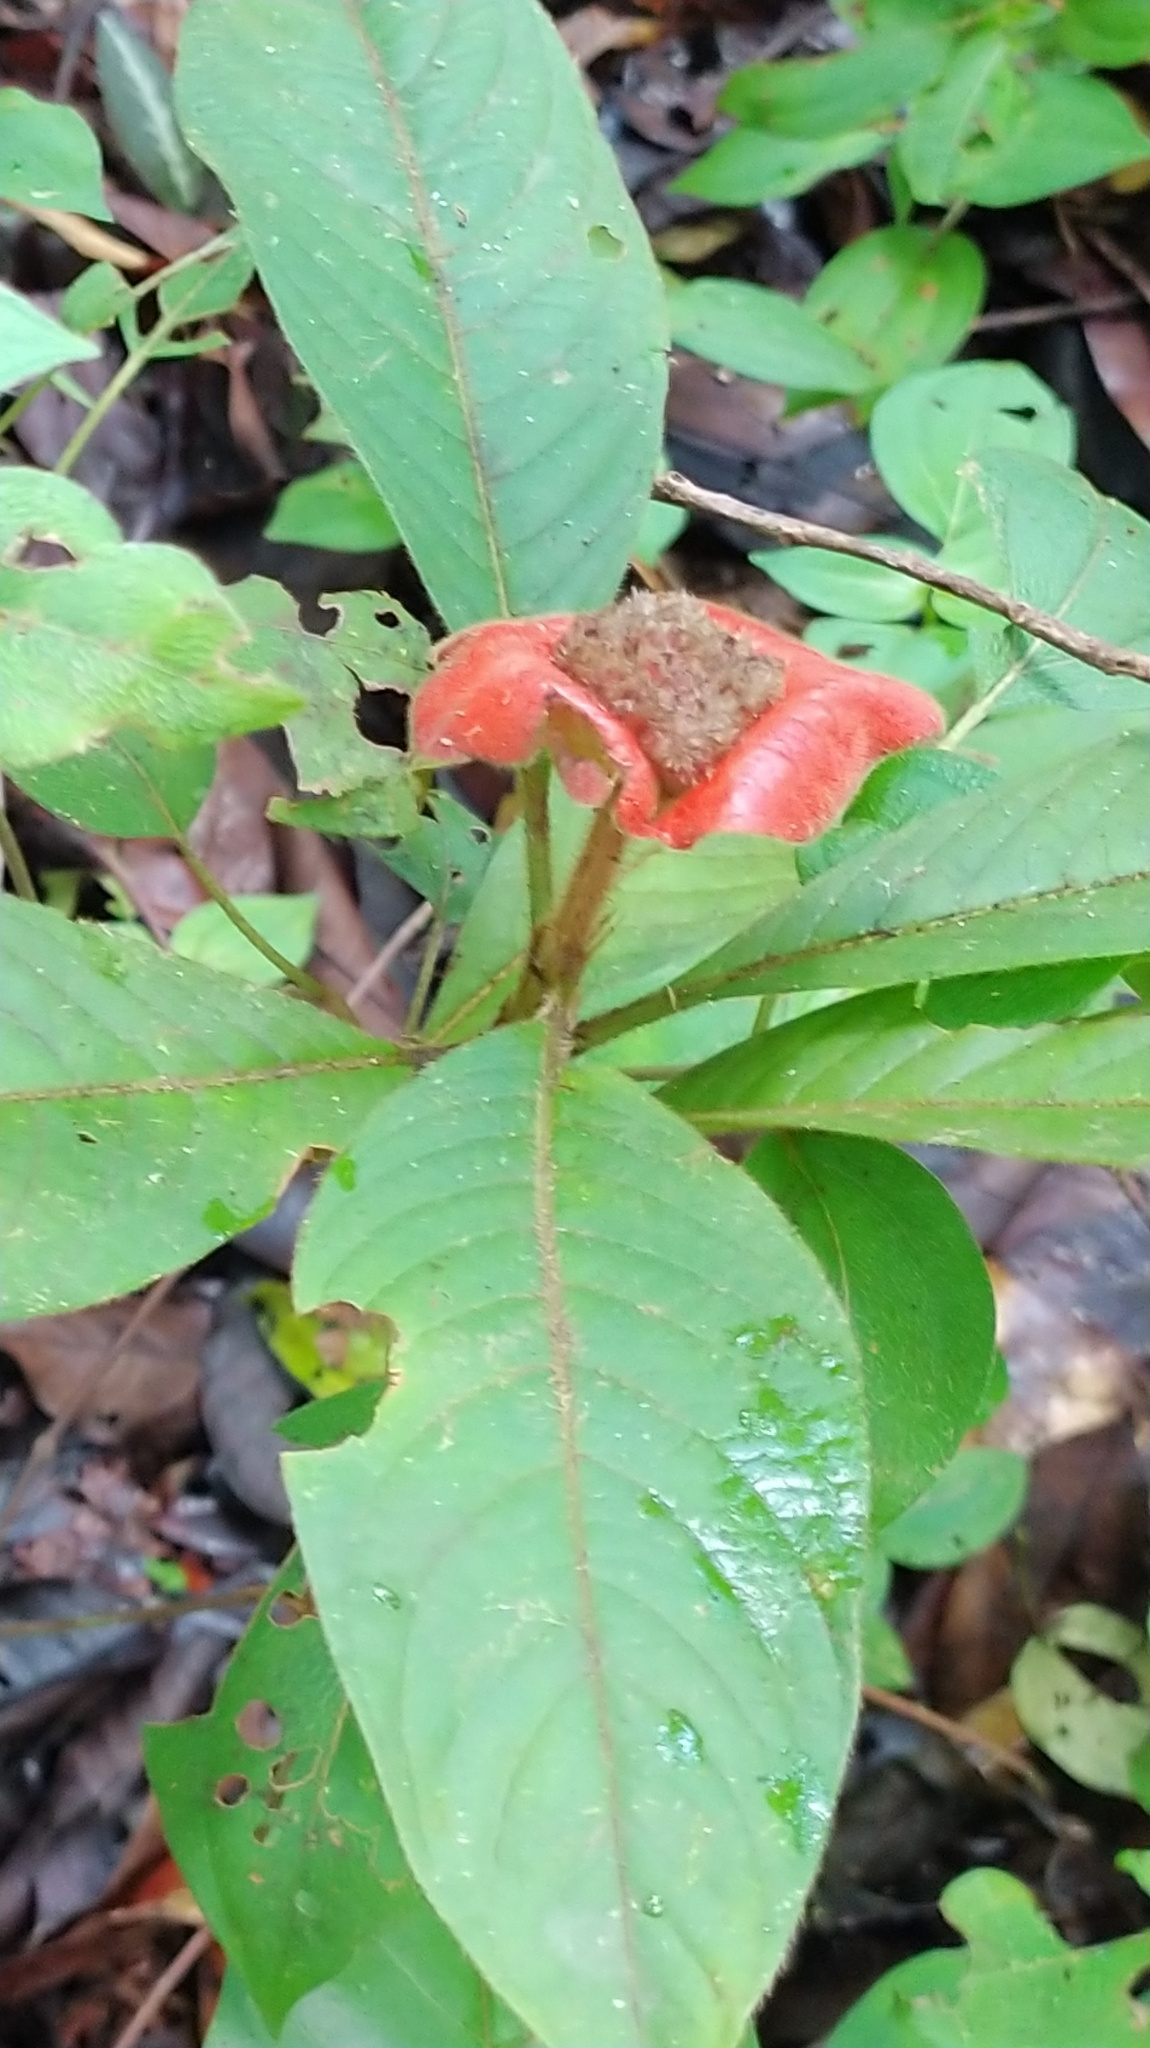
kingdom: Plantae
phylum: Tracheophyta
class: Magnoliopsida
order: Gentianales
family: Rubiaceae
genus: Palicourea
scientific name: Palicourea tomentosa
